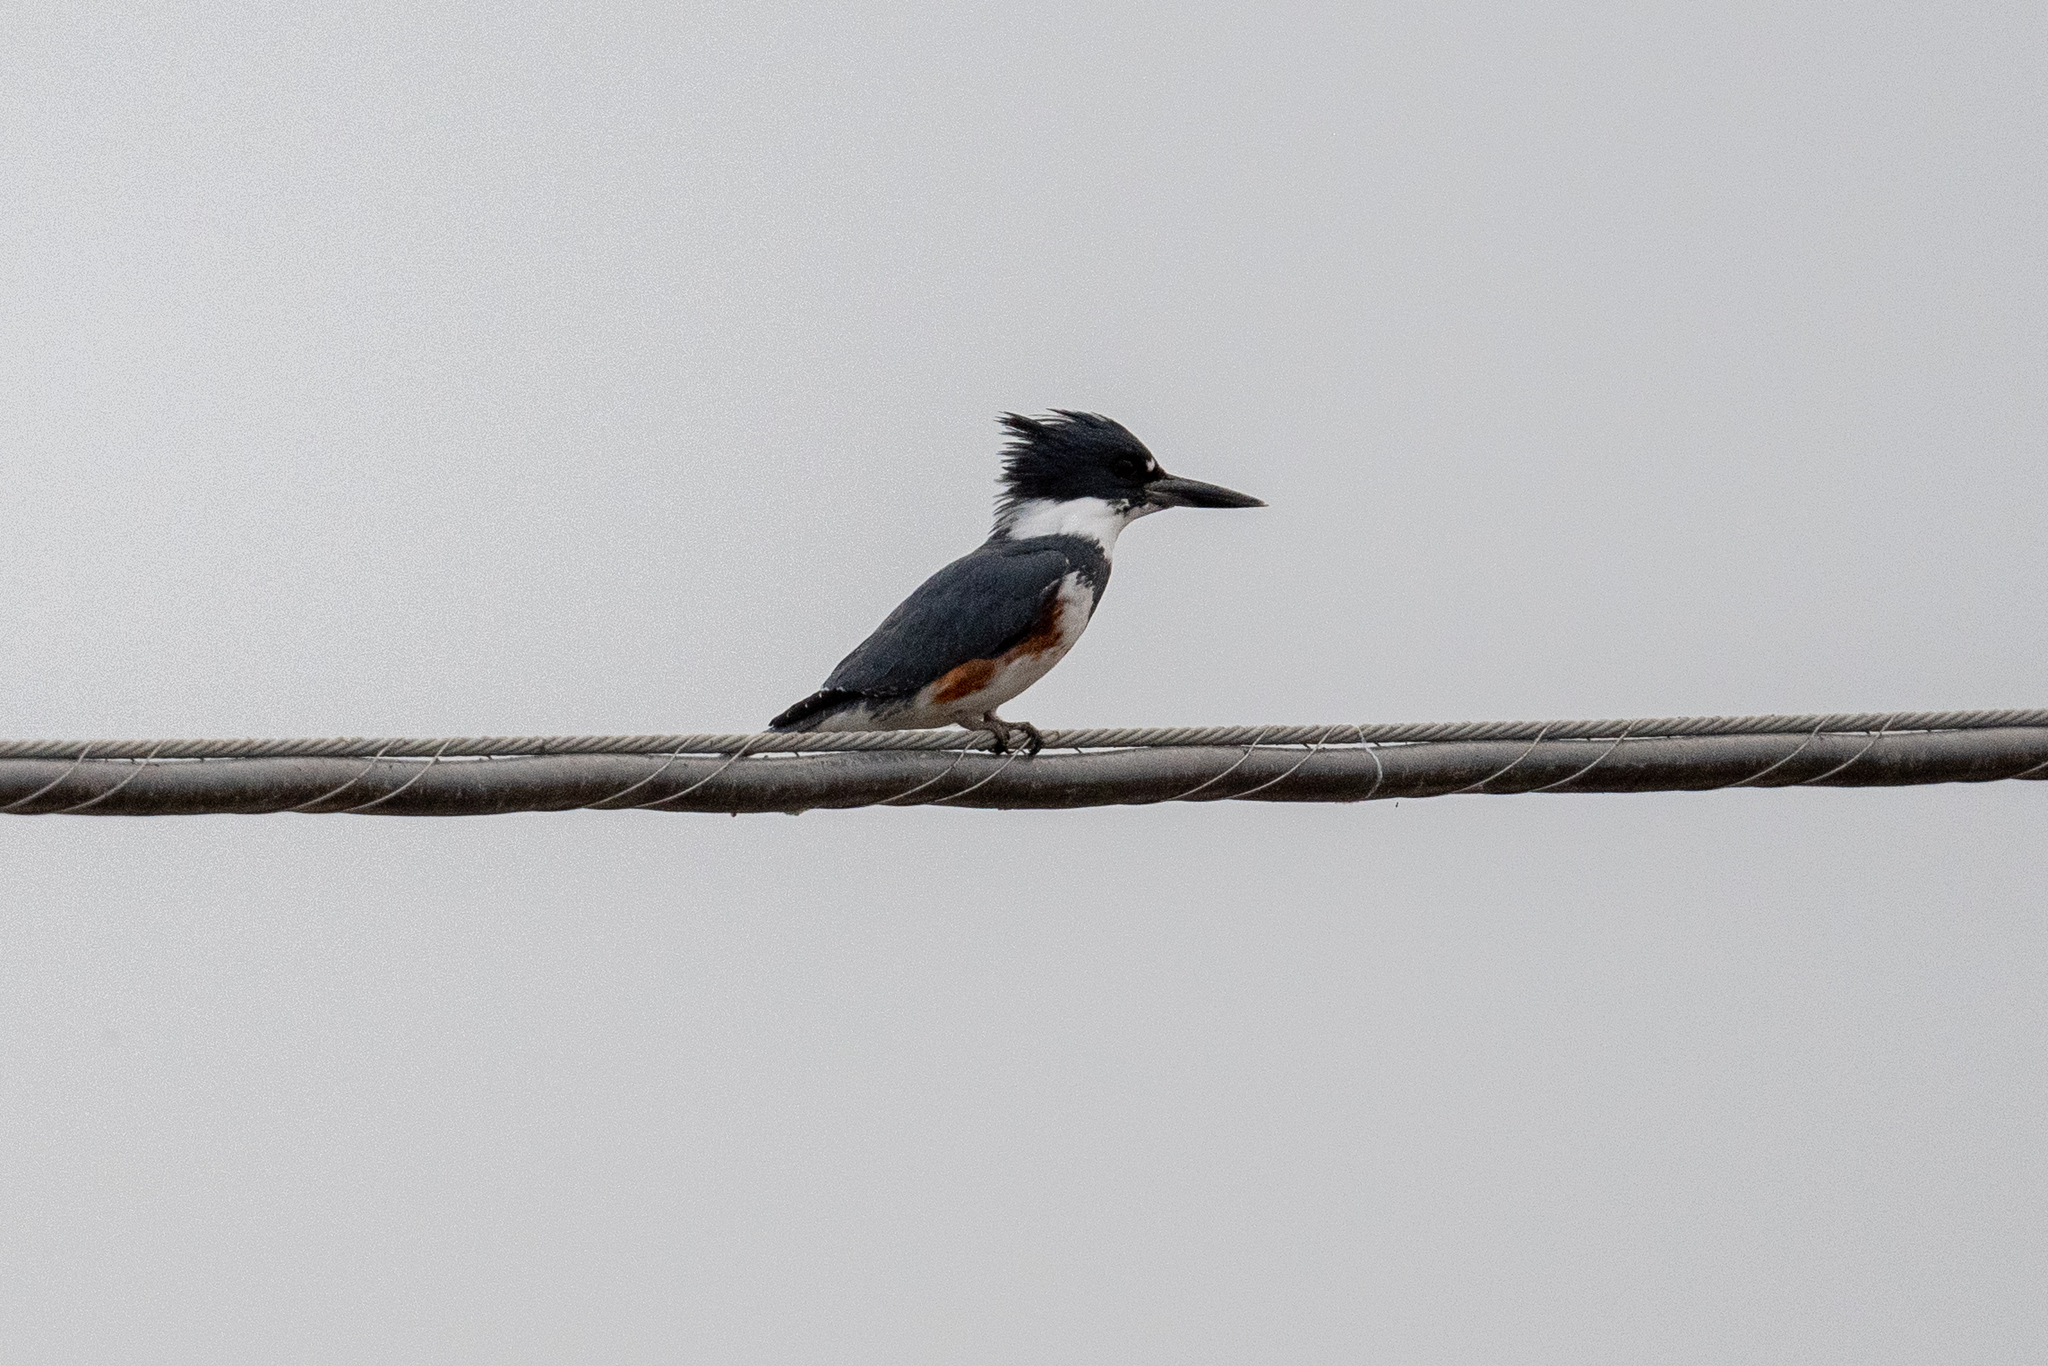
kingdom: Animalia
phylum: Chordata
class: Aves
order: Coraciiformes
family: Alcedinidae
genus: Megaceryle
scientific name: Megaceryle alcyon
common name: Belted kingfisher
